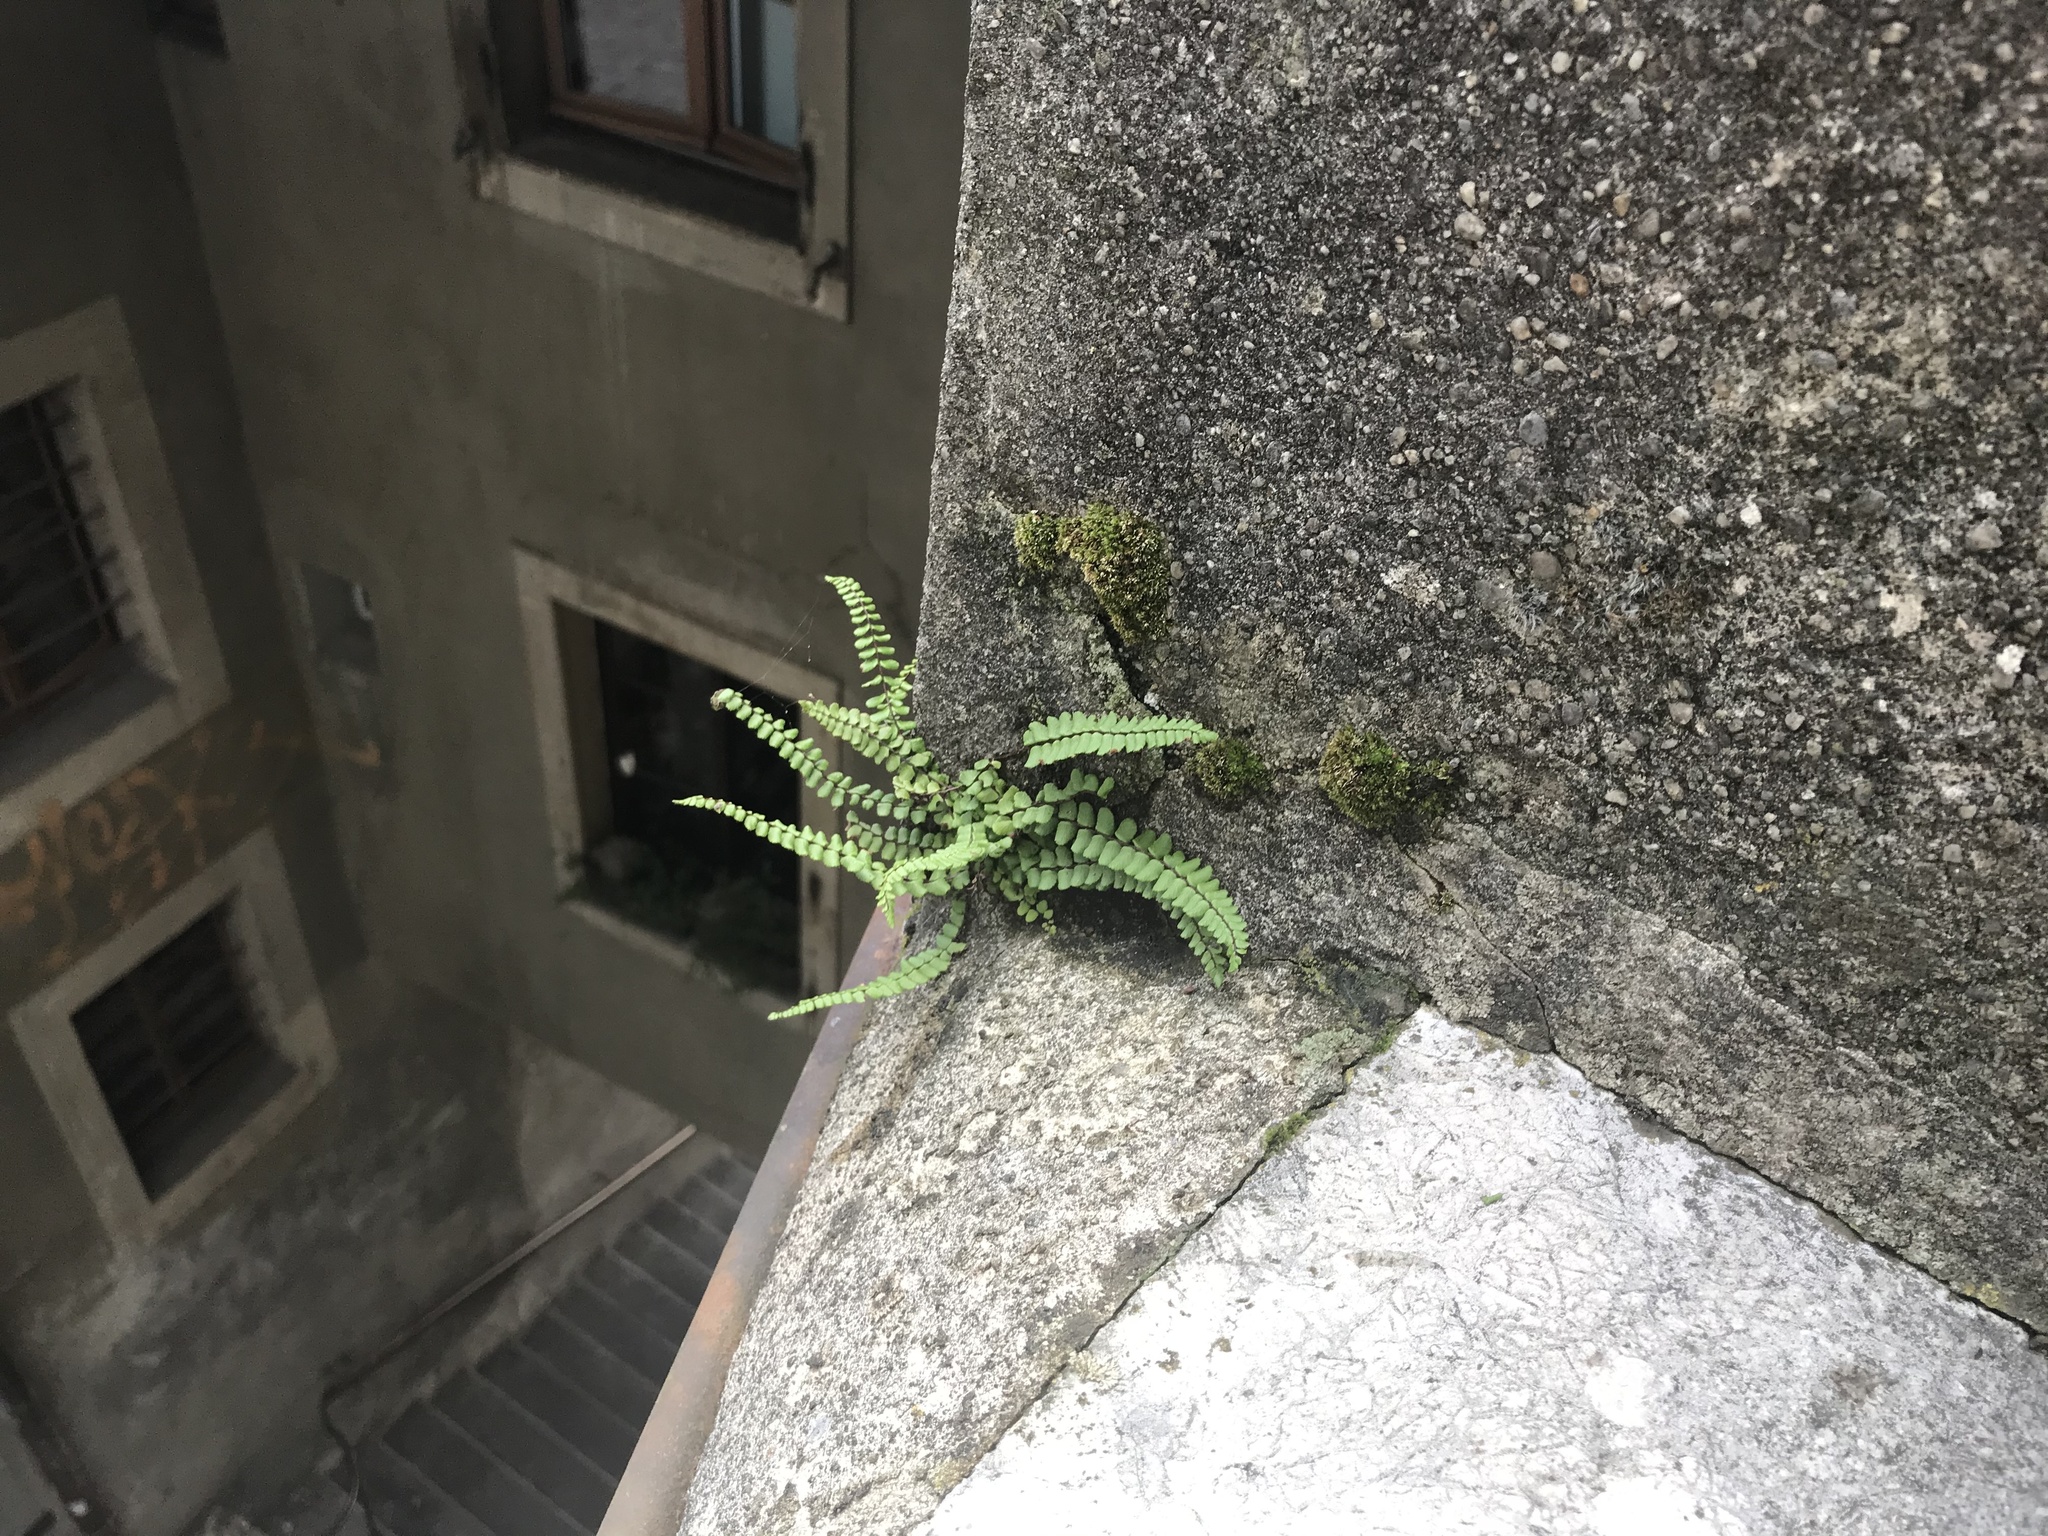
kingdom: Plantae
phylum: Tracheophyta
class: Polypodiopsida
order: Polypodiales
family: Aspleniaceae
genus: Asplenium
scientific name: Asplenium trichomanes
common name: Maidenhair spleenwort
